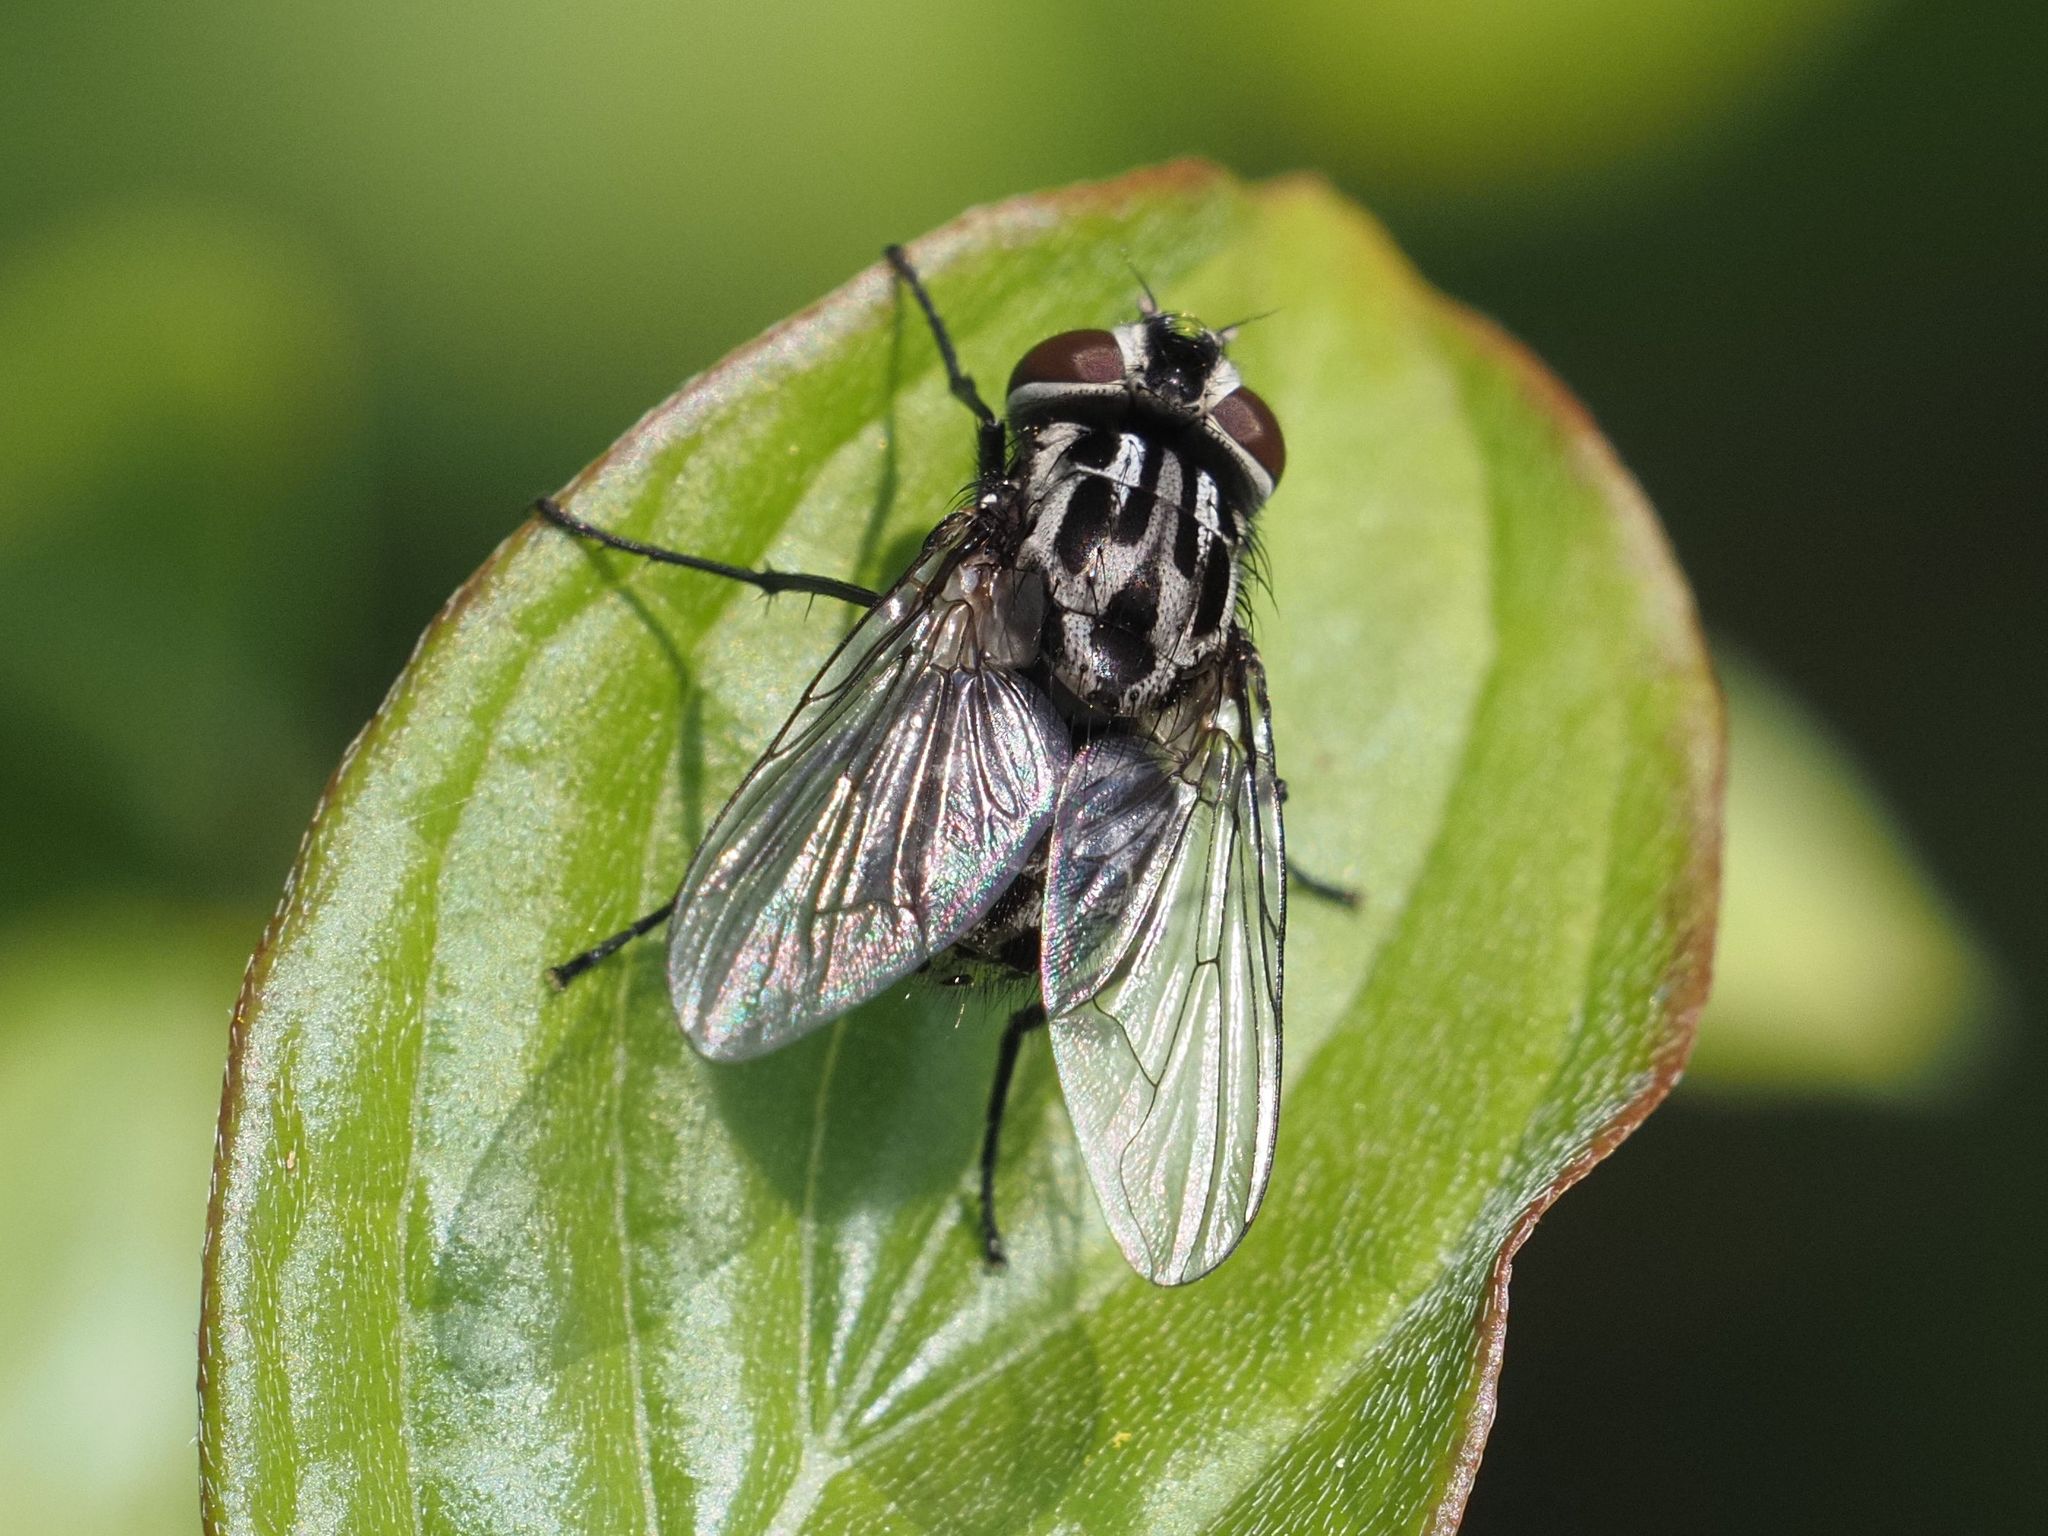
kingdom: Animalia
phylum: Arthropoda
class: Insecta
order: Diptera
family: Muscidae
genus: Graphomya
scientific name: Graphomya maculata
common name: Muscid fly
